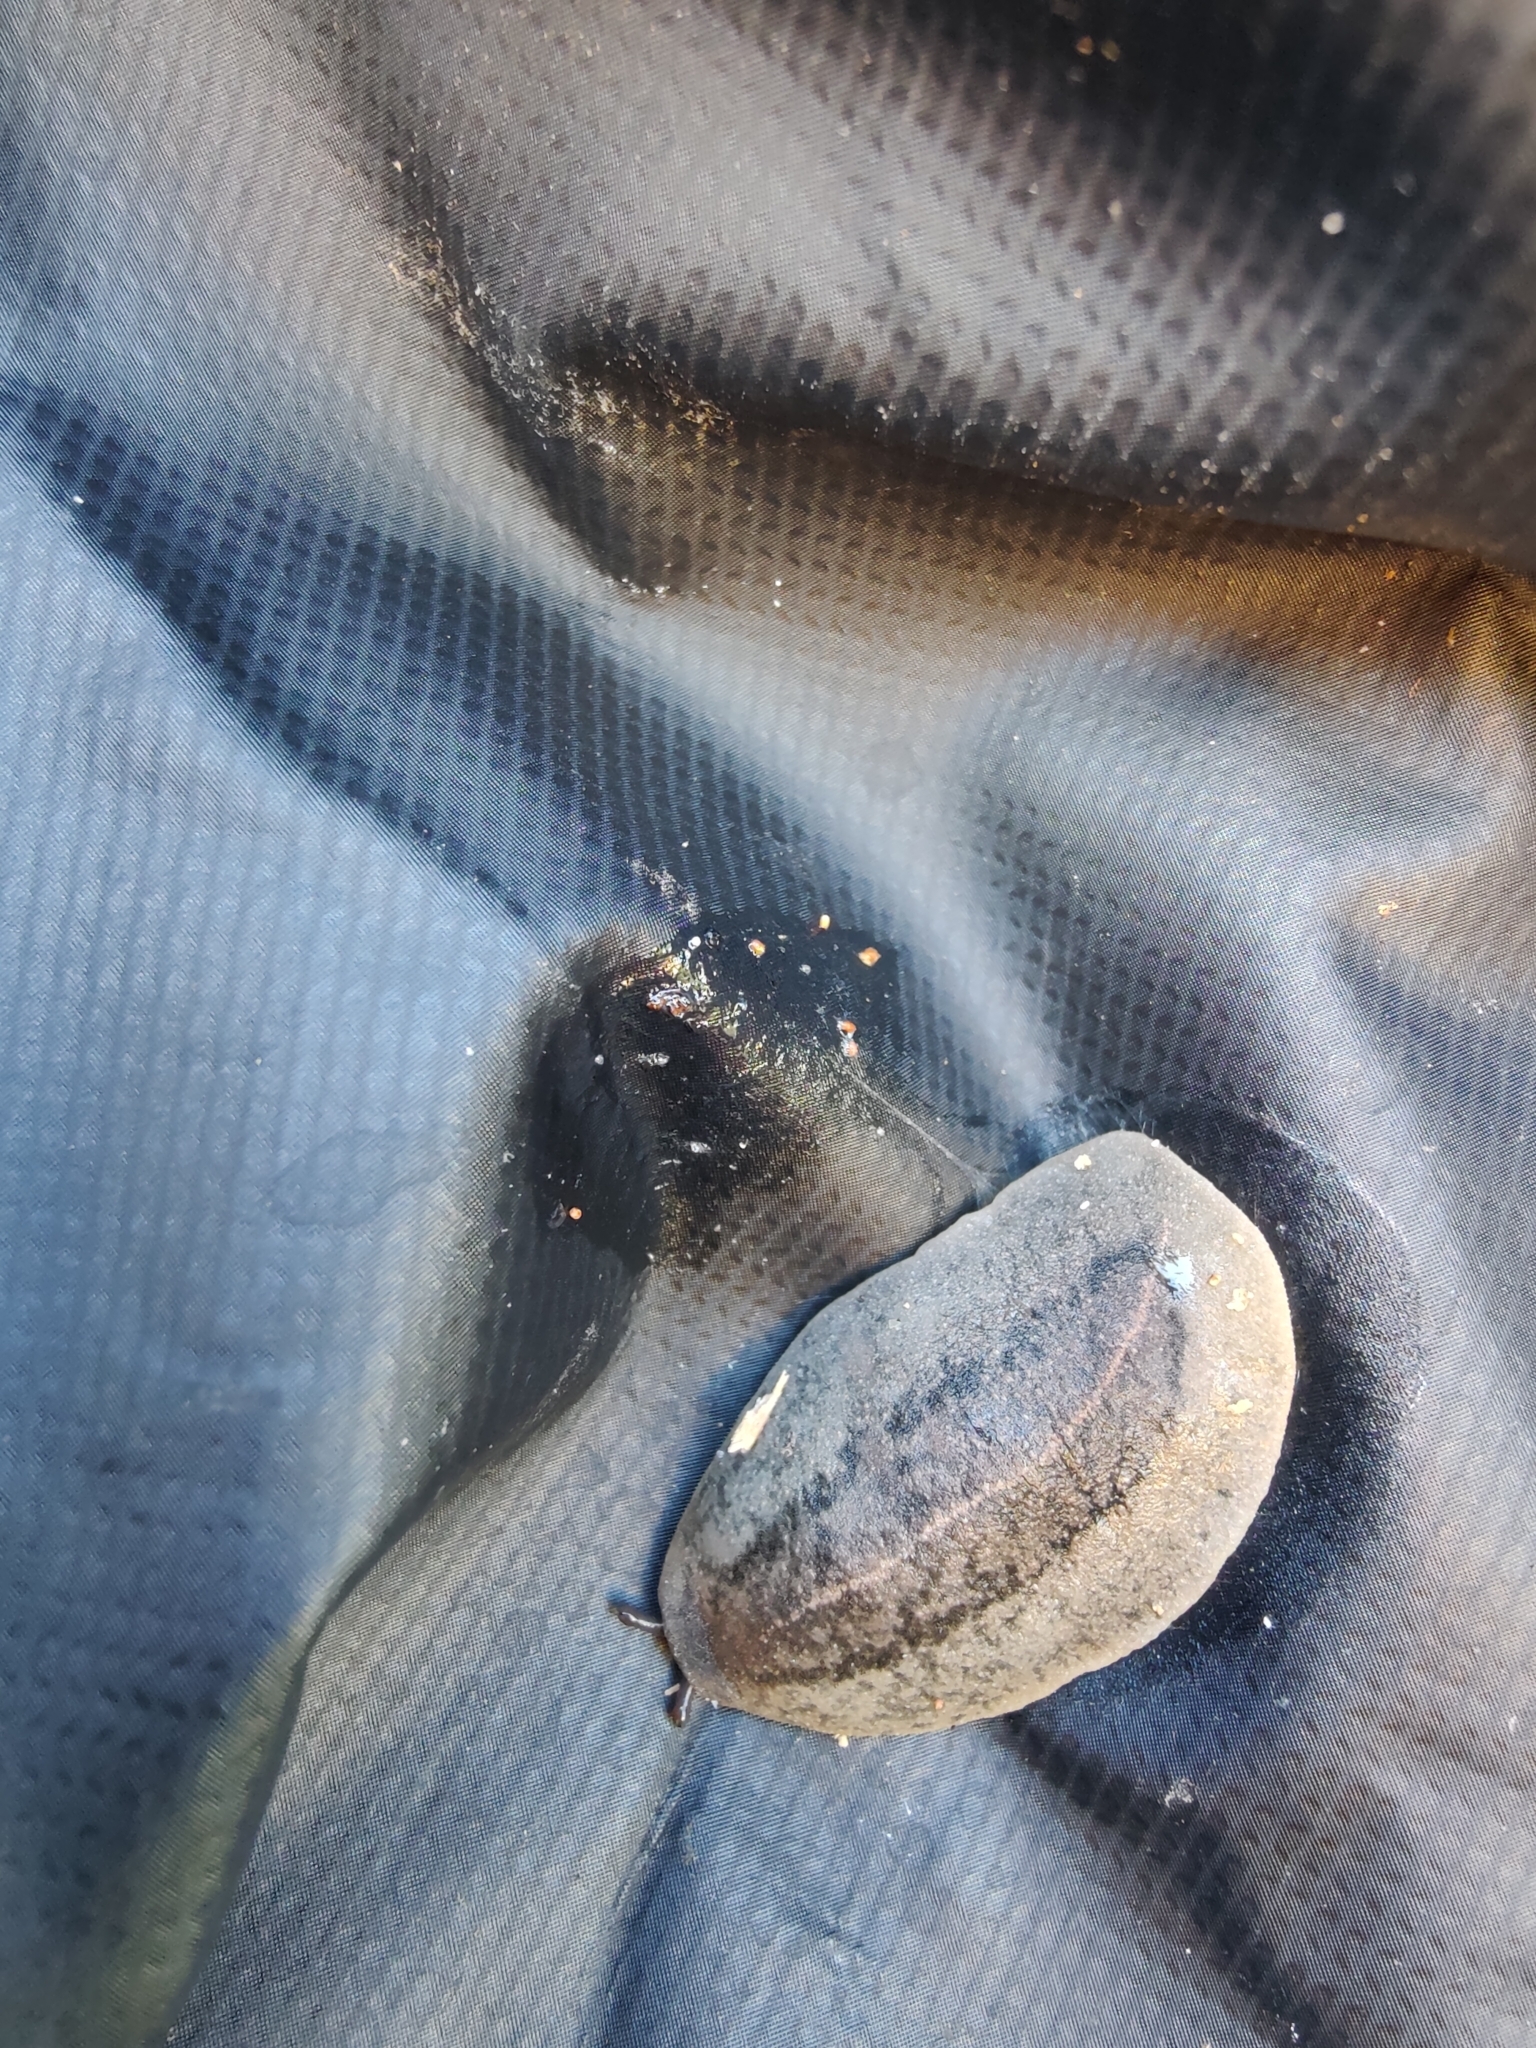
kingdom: Animalia
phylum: Mollusca
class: Gastropoda
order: Systellommatophora
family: Veronicellidae
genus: Leidyula
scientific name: Leidyula floridana
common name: Florida leatherleaf
